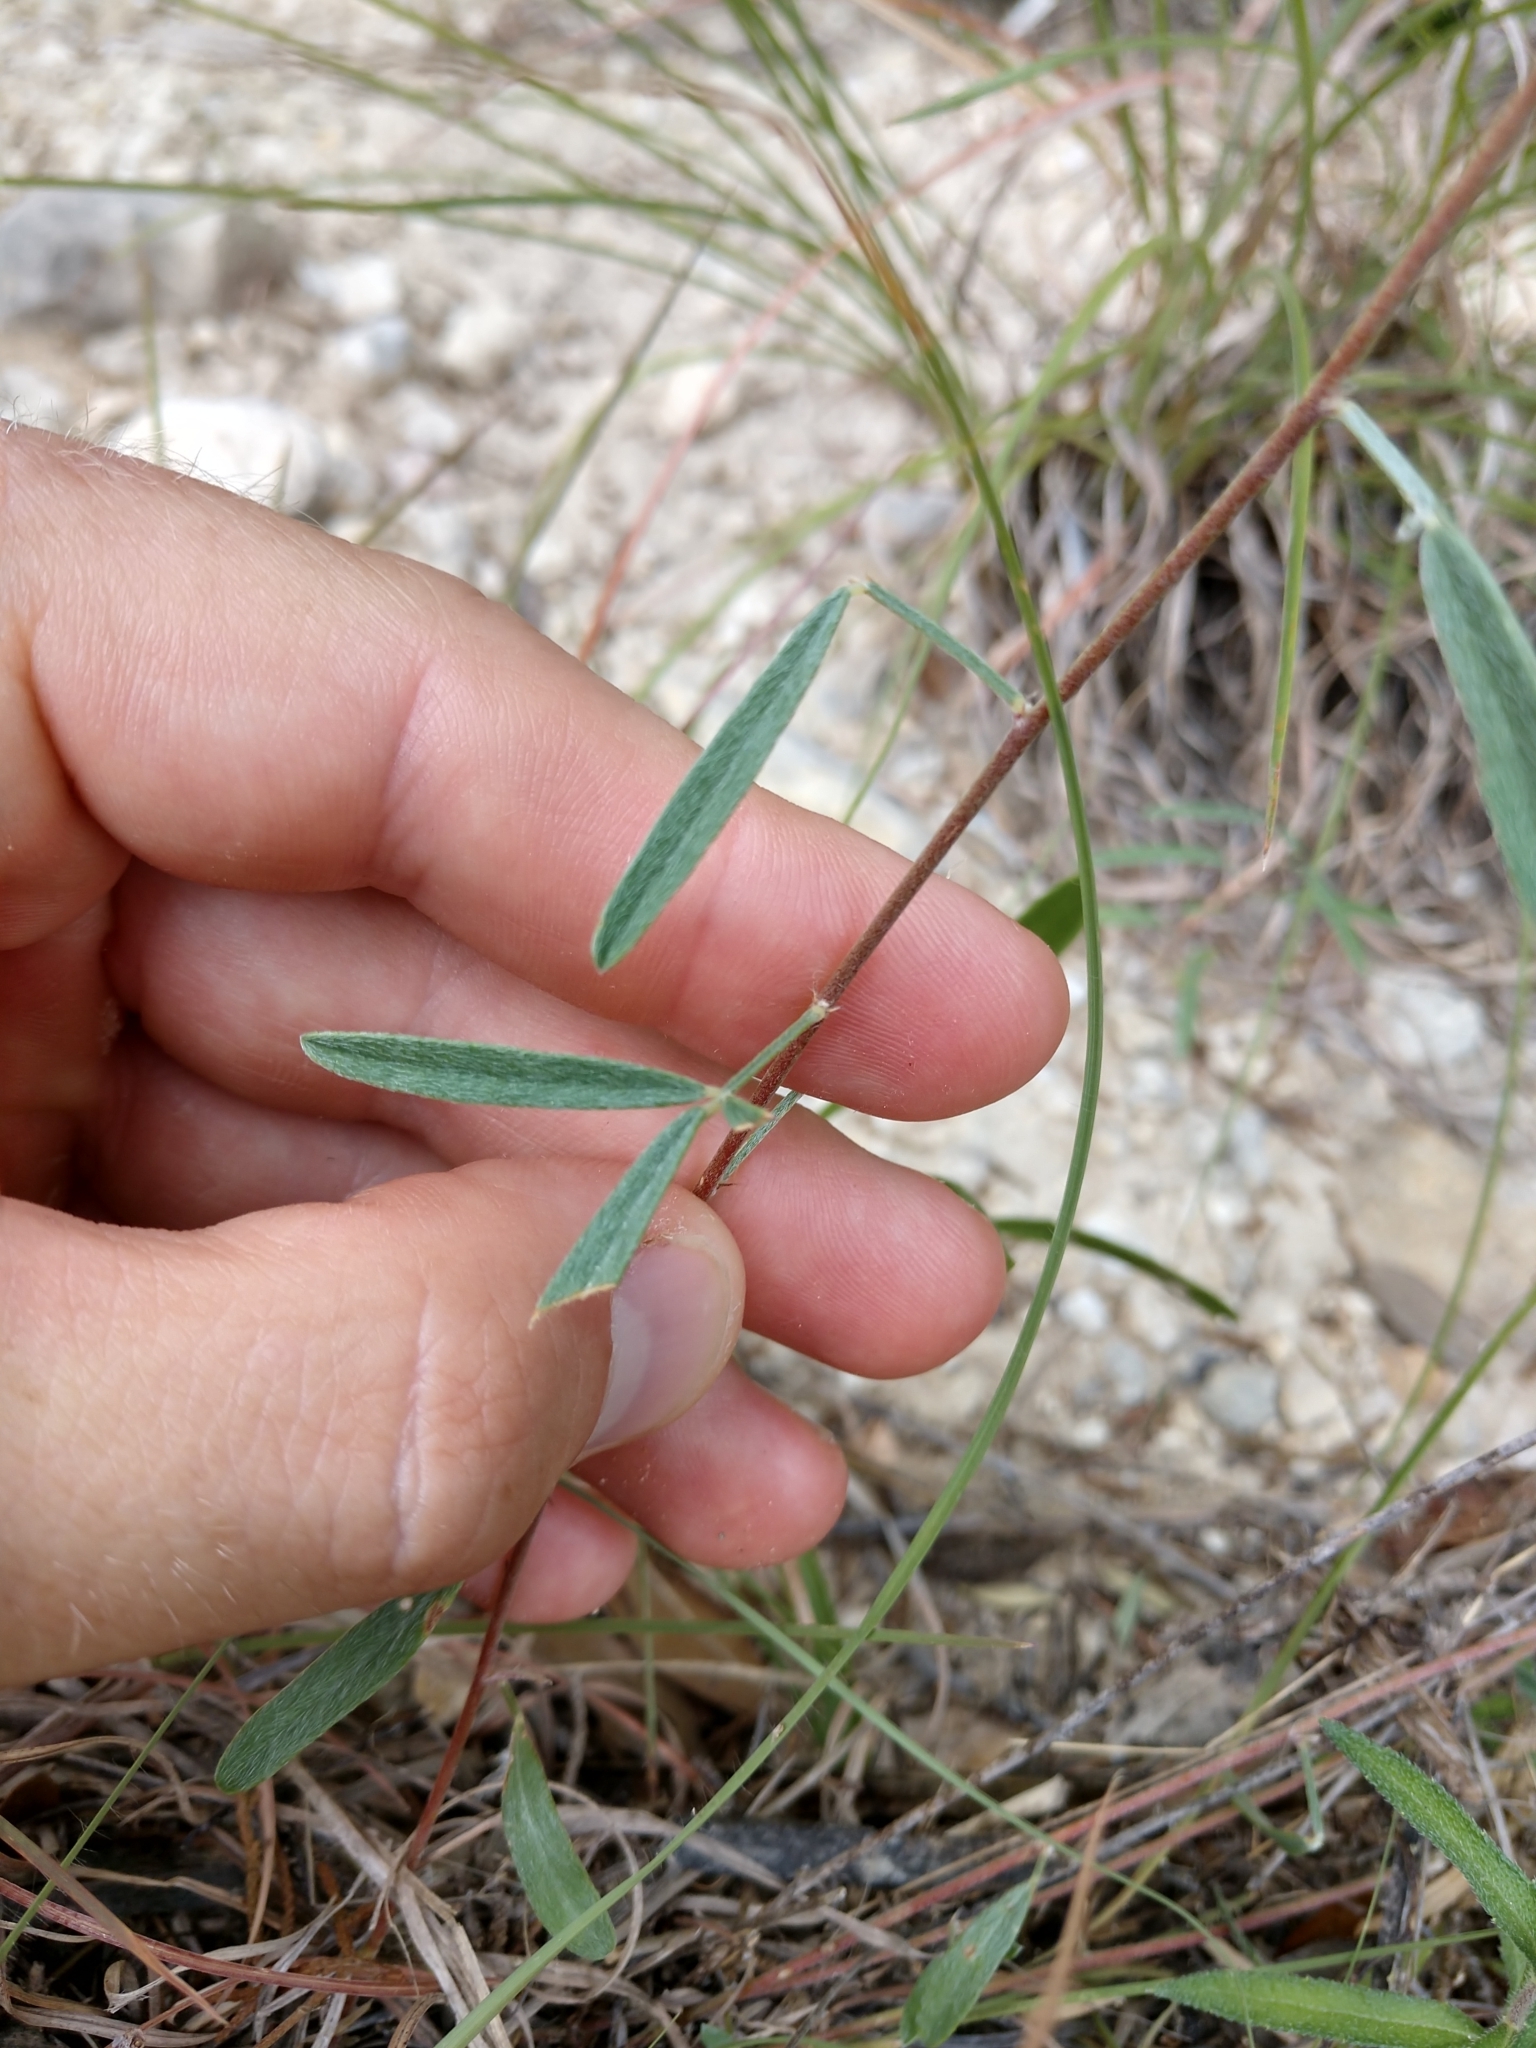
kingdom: Plantae
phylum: Tracheophyta
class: Magnoliopsida
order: Fabales
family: Fabaceae
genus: Dalea
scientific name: Dalea hallii
